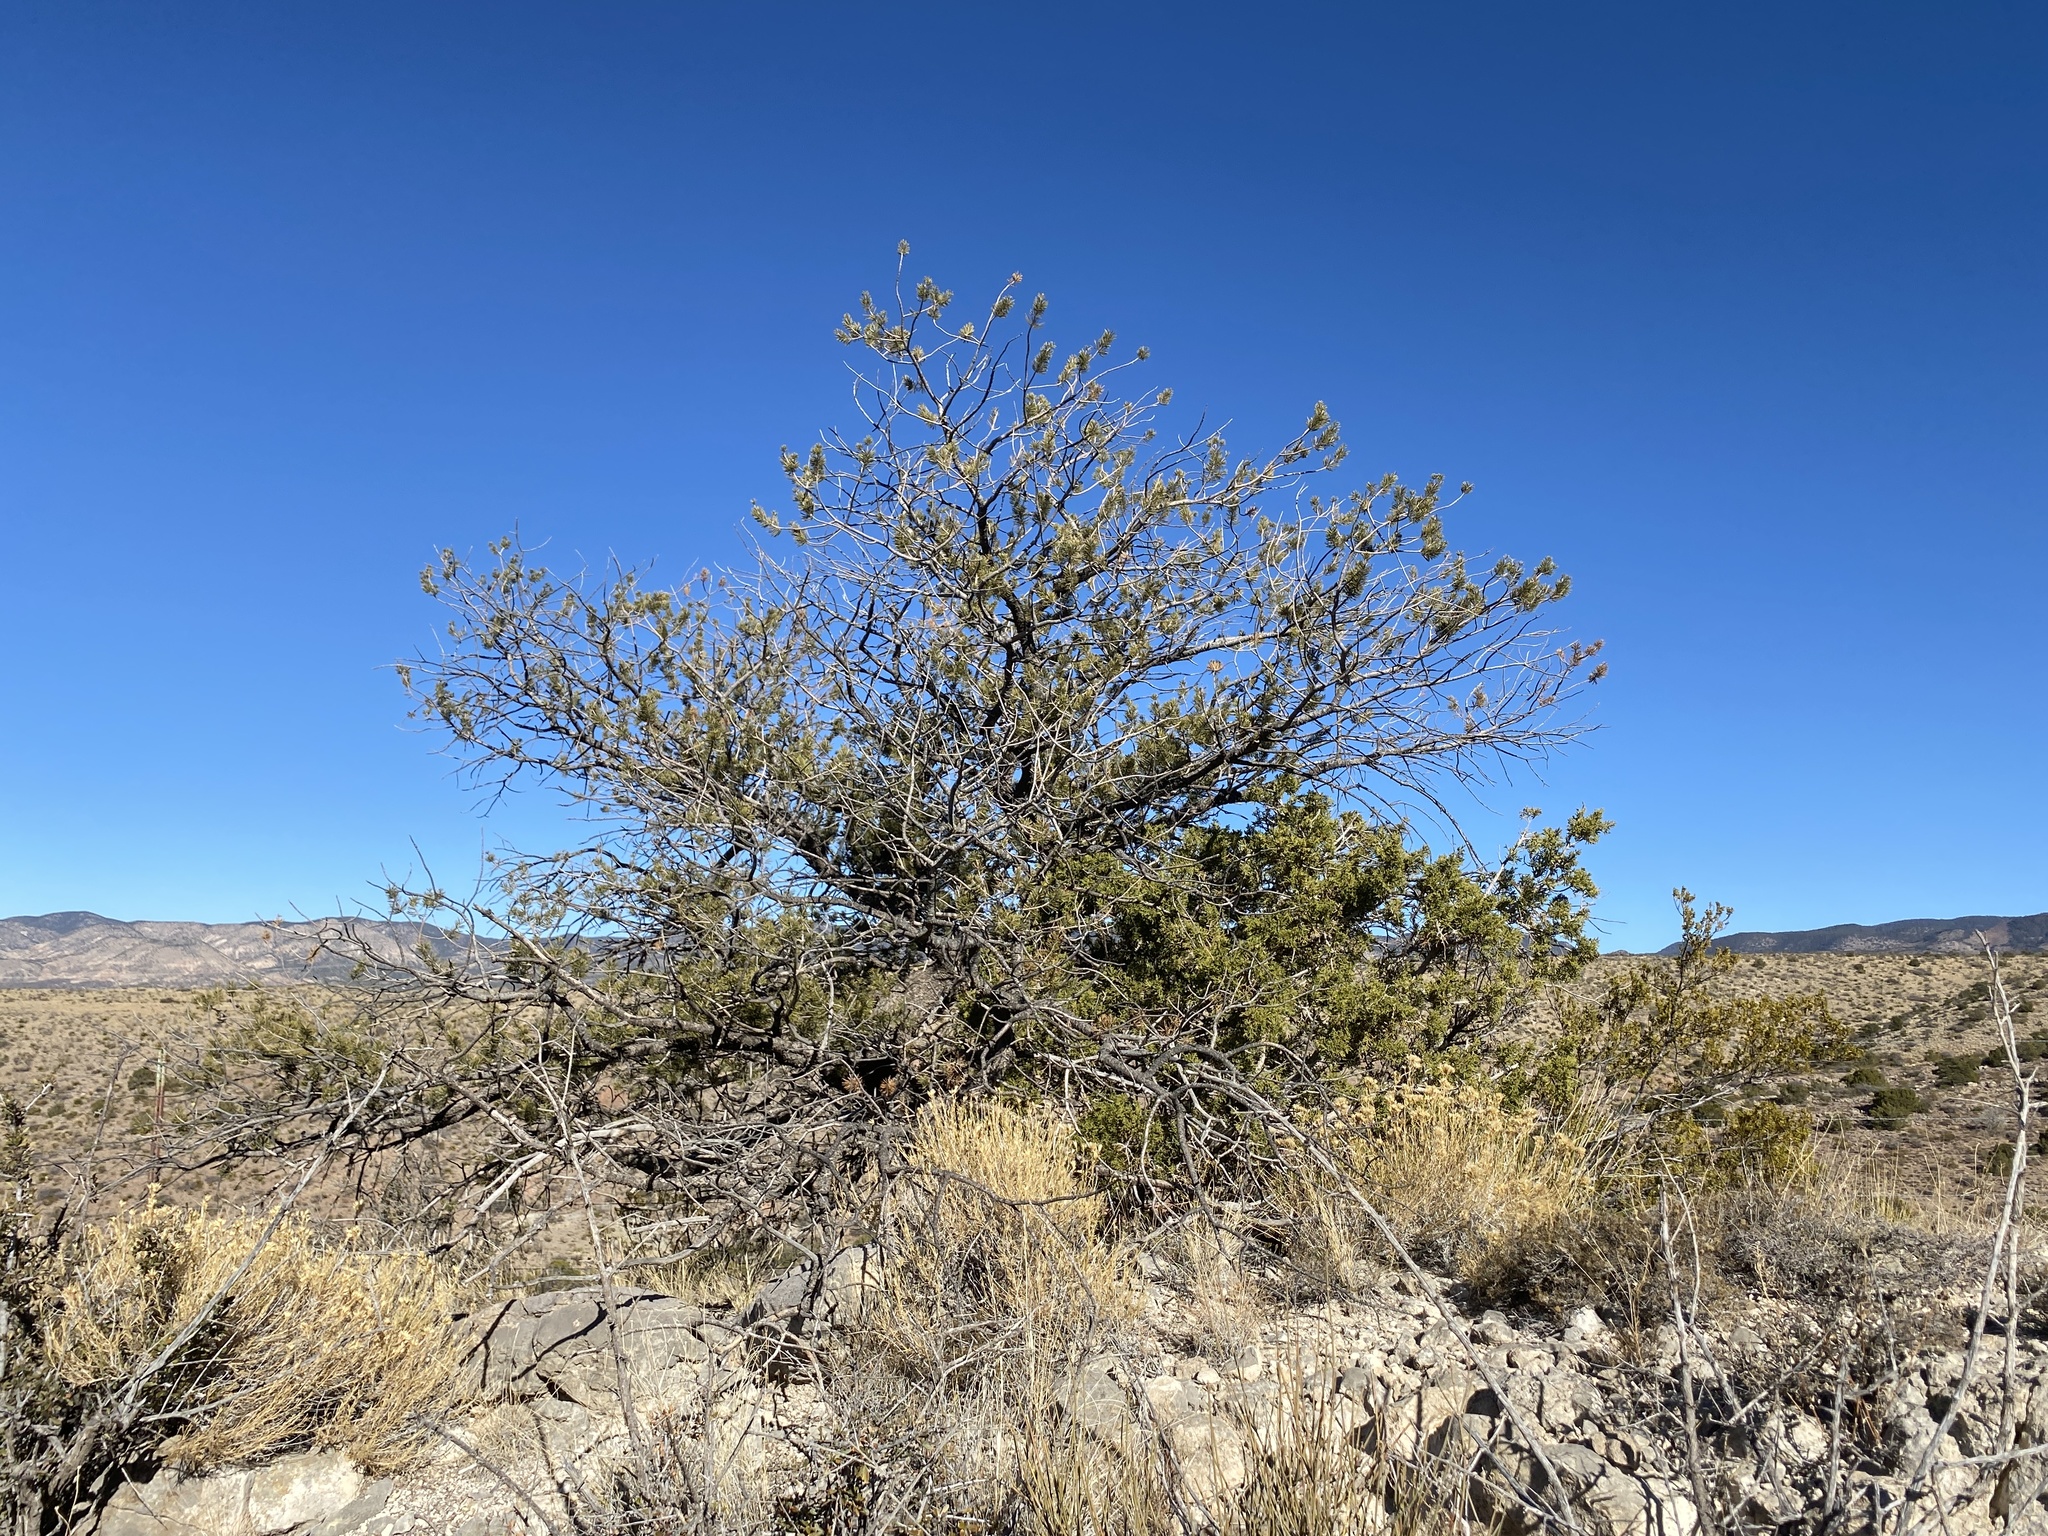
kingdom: Plantae
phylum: Tracheophyta
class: Pinopsida
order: Pinales
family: Pinaceae
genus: Pinus
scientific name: Pinus edulis
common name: Colorado pinyon
